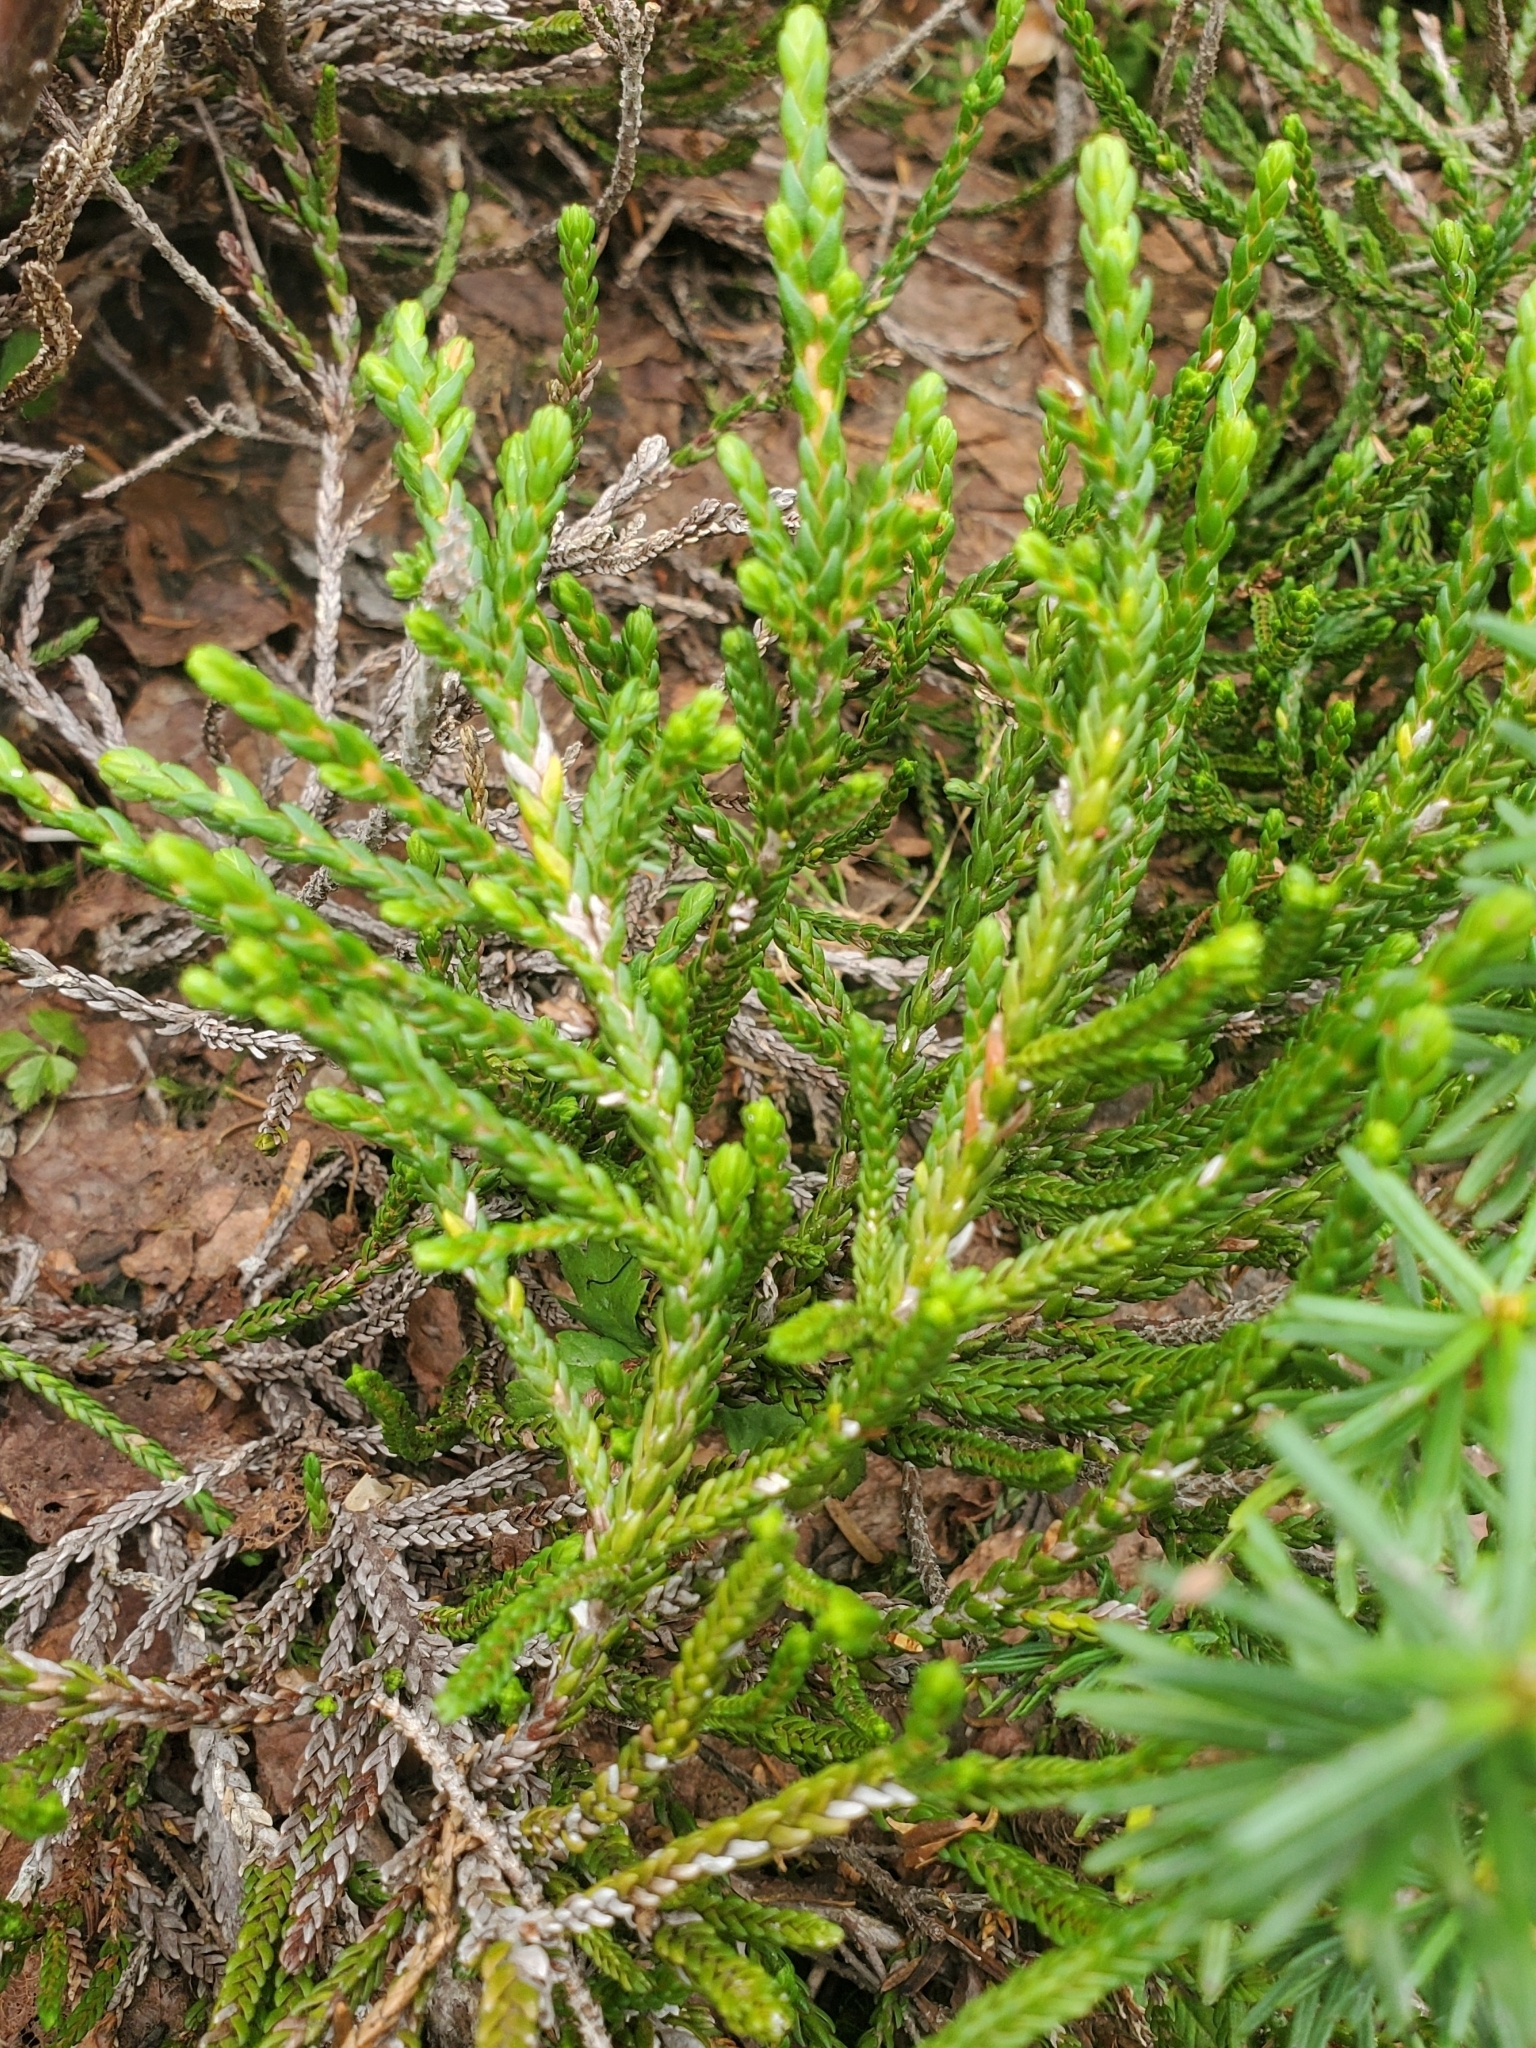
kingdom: Plantae
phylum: Tracheophyta
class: Magnoliopsida
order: Ericales
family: Ericaceae
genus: Cassiope
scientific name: Cassiope mertensiana
